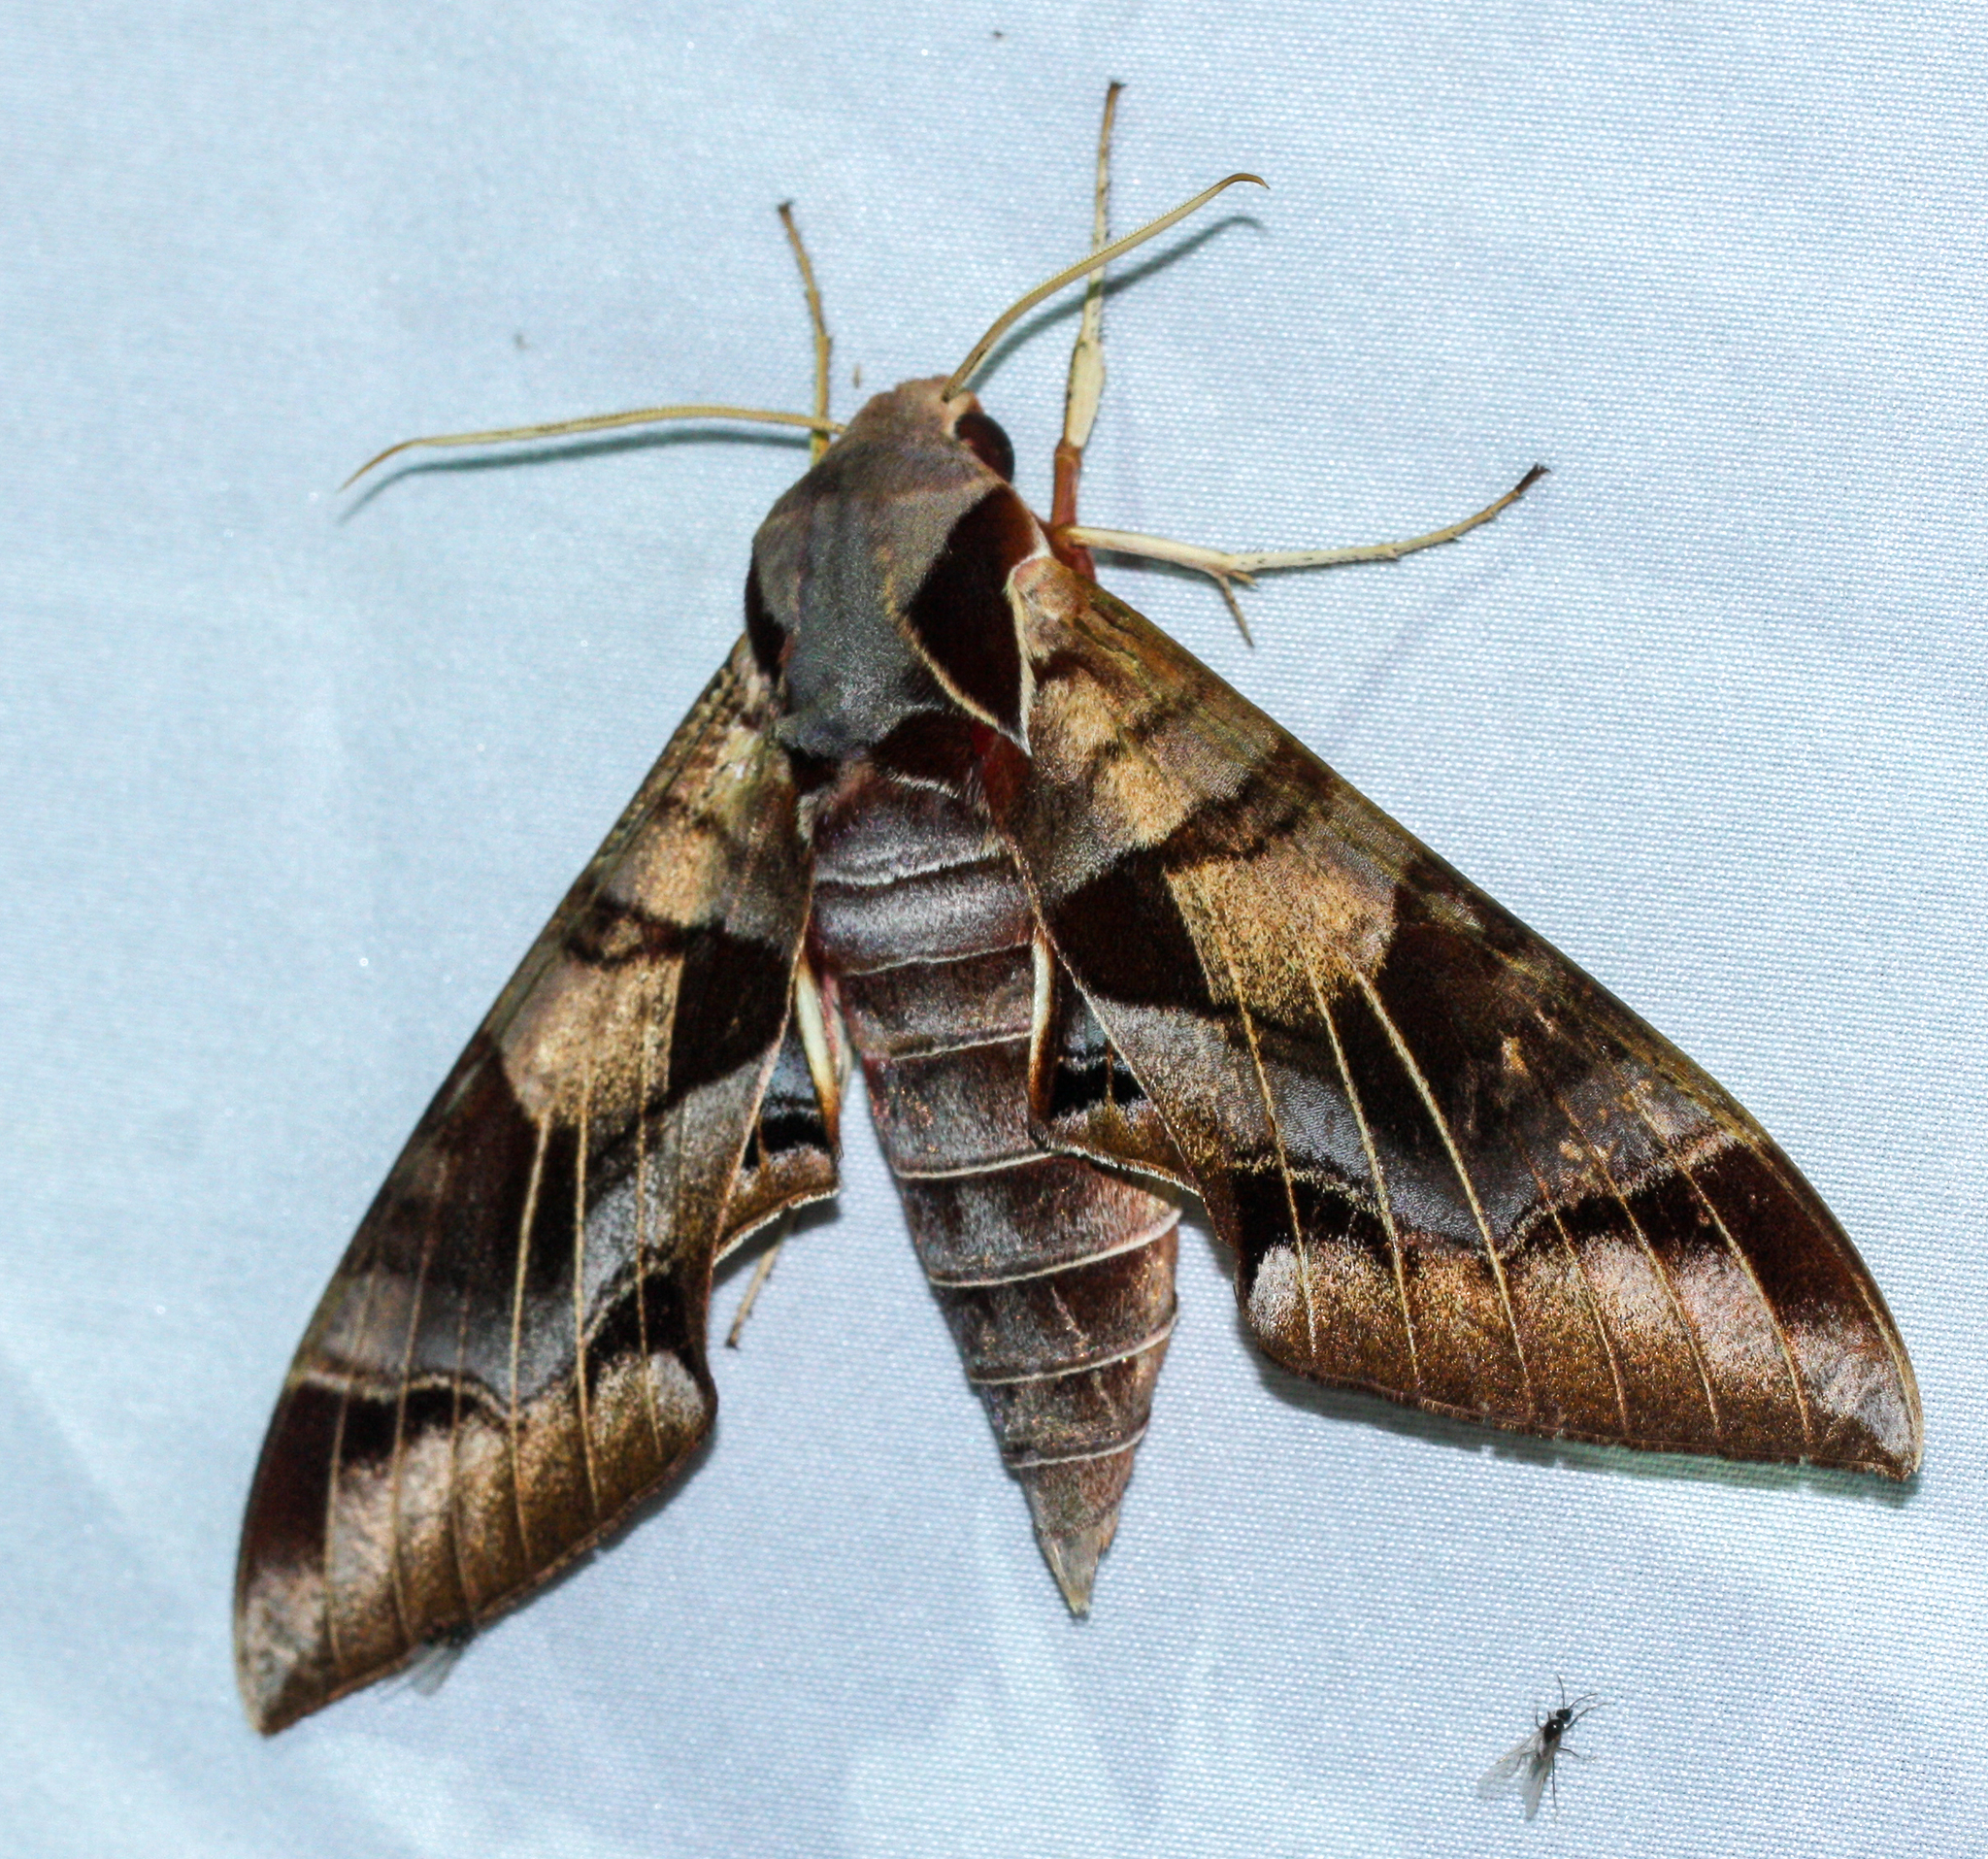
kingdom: Animalia
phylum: Arthropoda
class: Insecta
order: Lepidoptera
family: Sphingidae
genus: Eumorpha
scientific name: Eumorpha typhon
